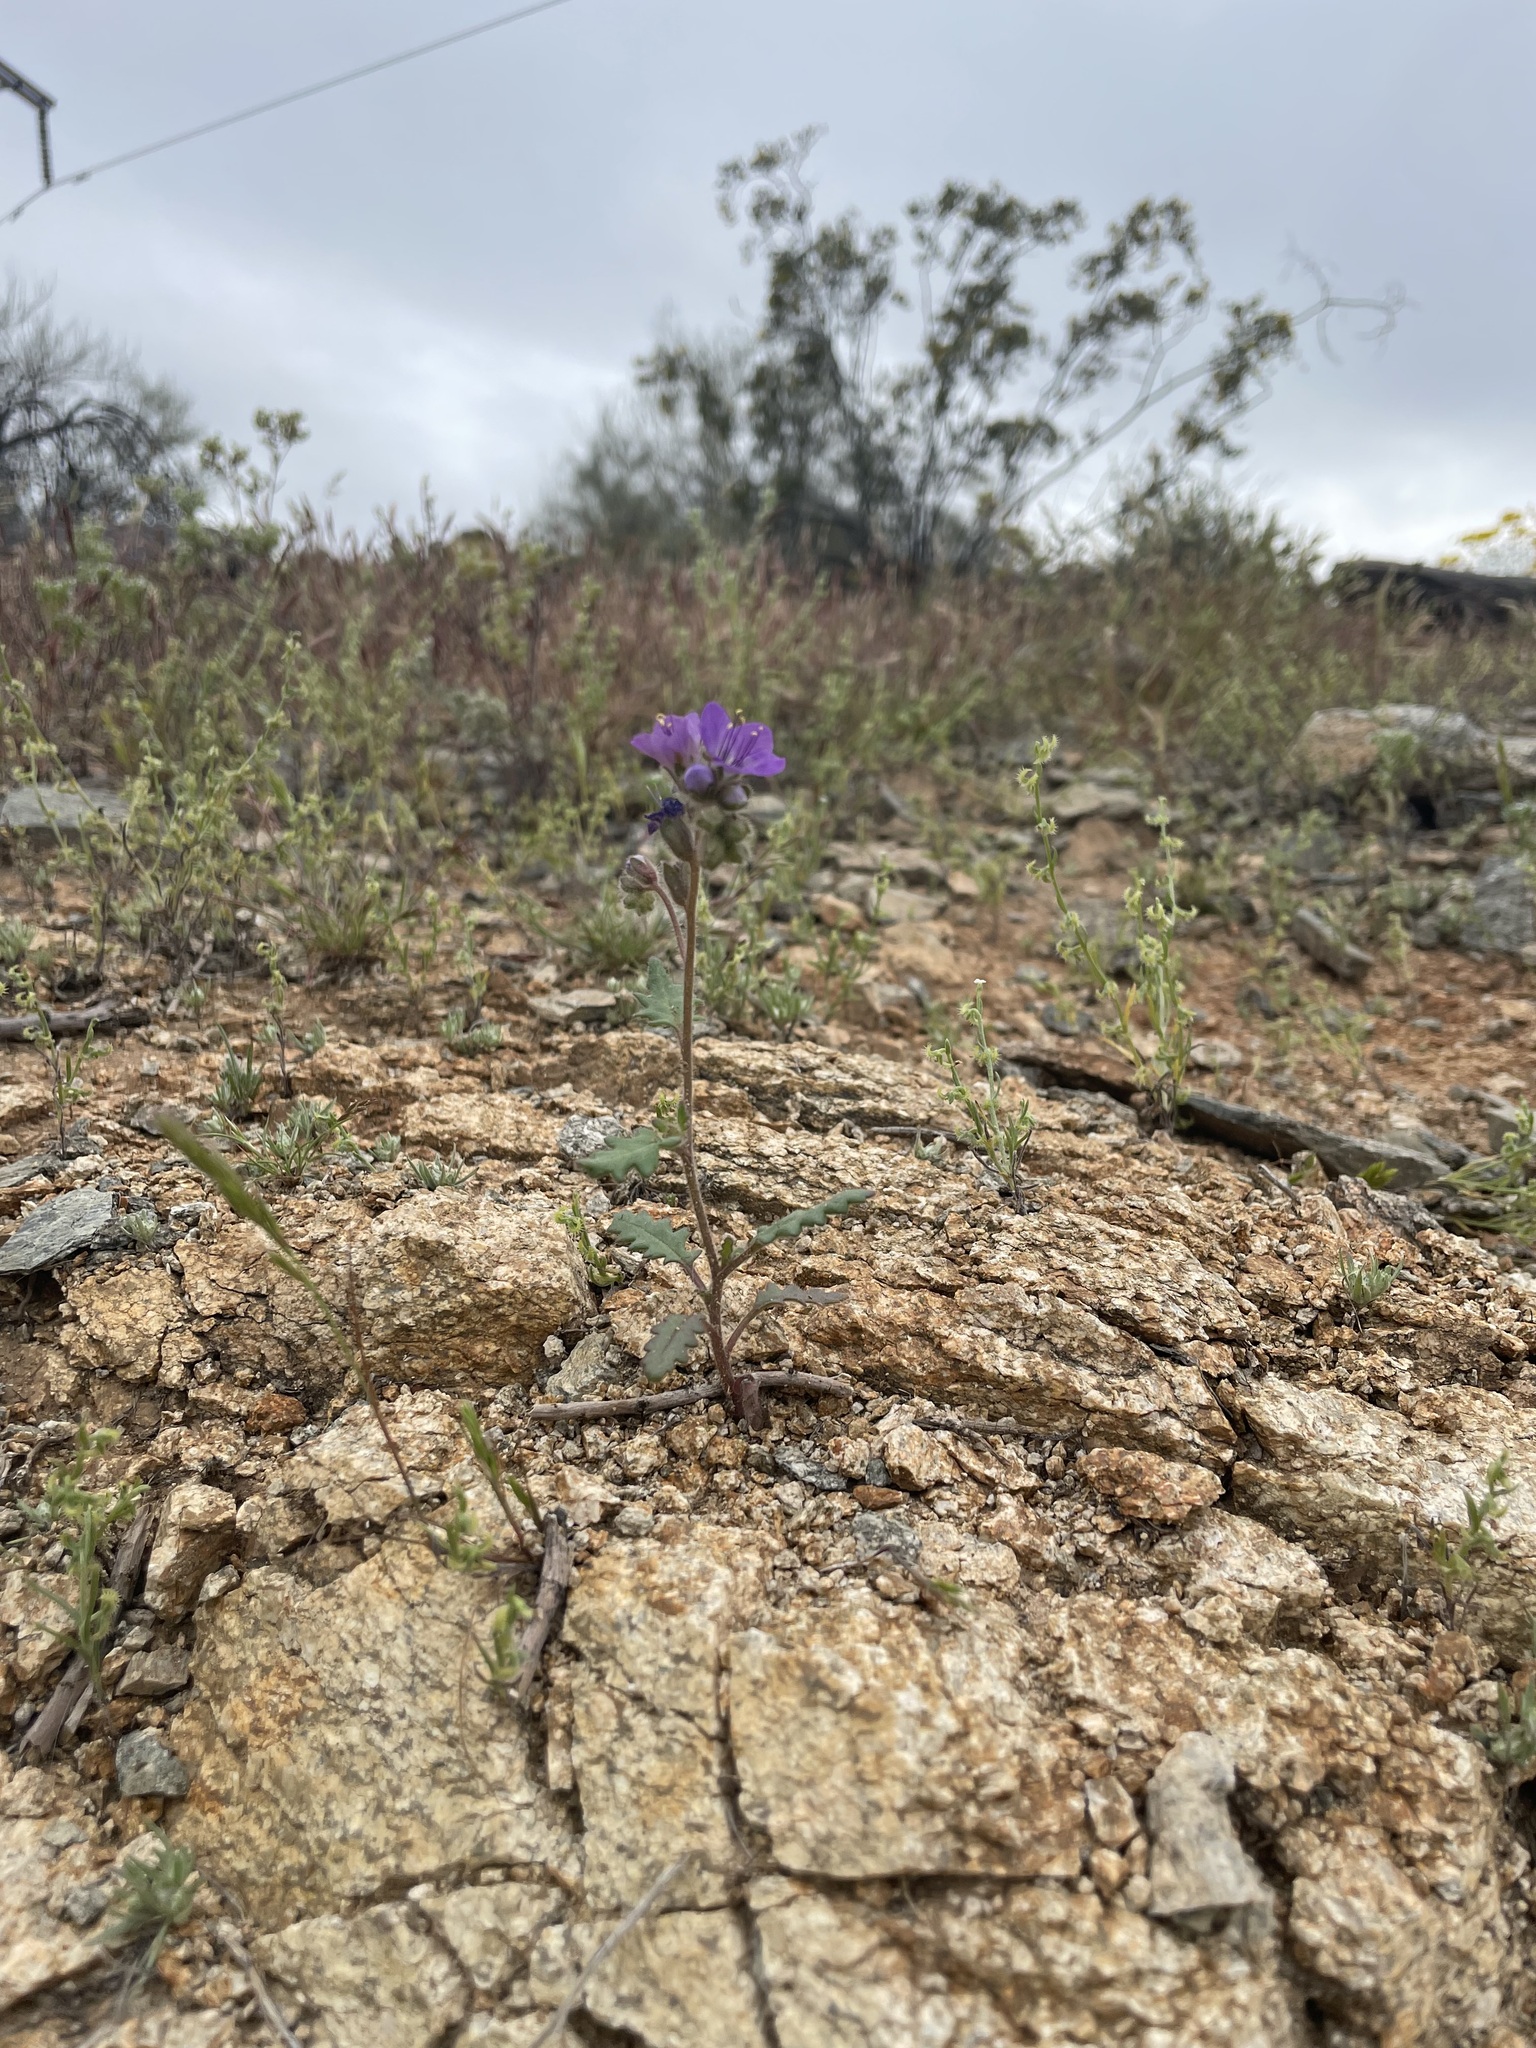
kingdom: Plantae
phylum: Tracheophyta
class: Magnoliopsida
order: Boraginales
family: Hydrophyllaceae
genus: Phacelia
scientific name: Phacelia crenulata
